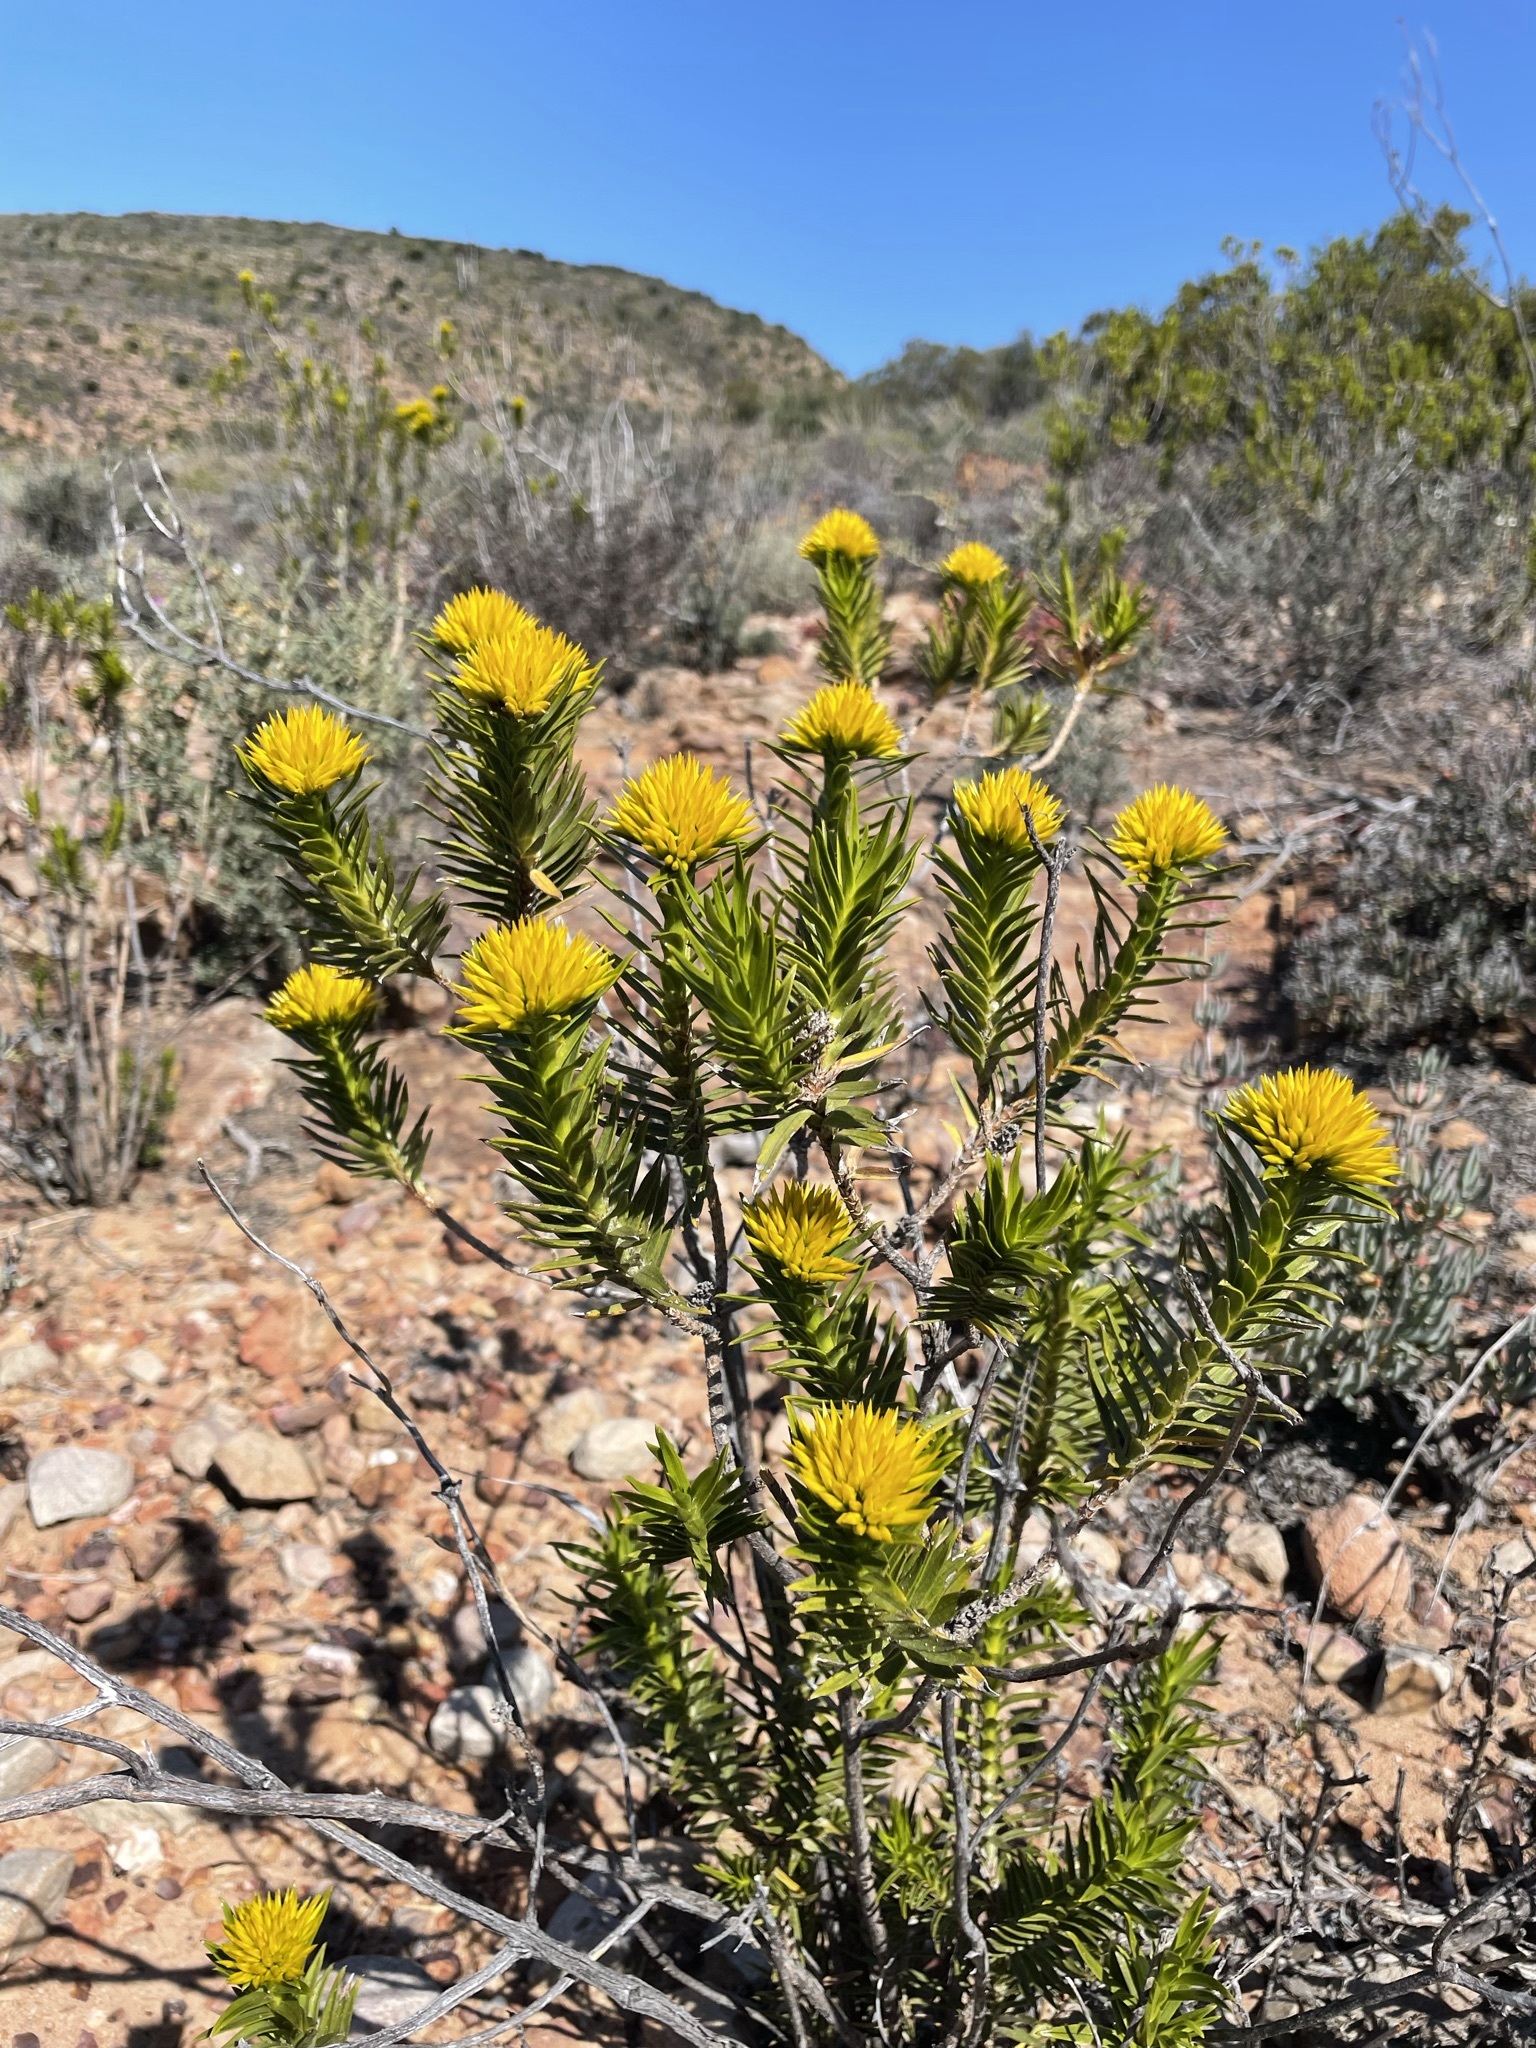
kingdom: Plantae
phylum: Tracheophyta
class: Magnoliopsida
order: Asterales
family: Asteraceae
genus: Pteronia
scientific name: Pteronia fasciculata
